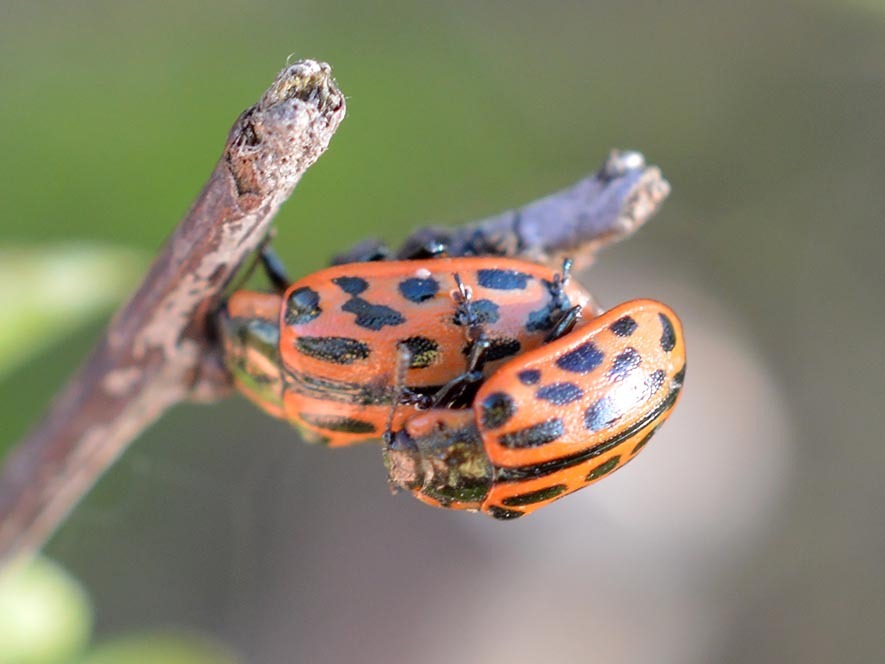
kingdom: Animalia
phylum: Arthropoda
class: Insecta
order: Coleoptera
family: Chrysomelidae
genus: Chrysomela
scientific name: Chrysomela vigintipunctata
